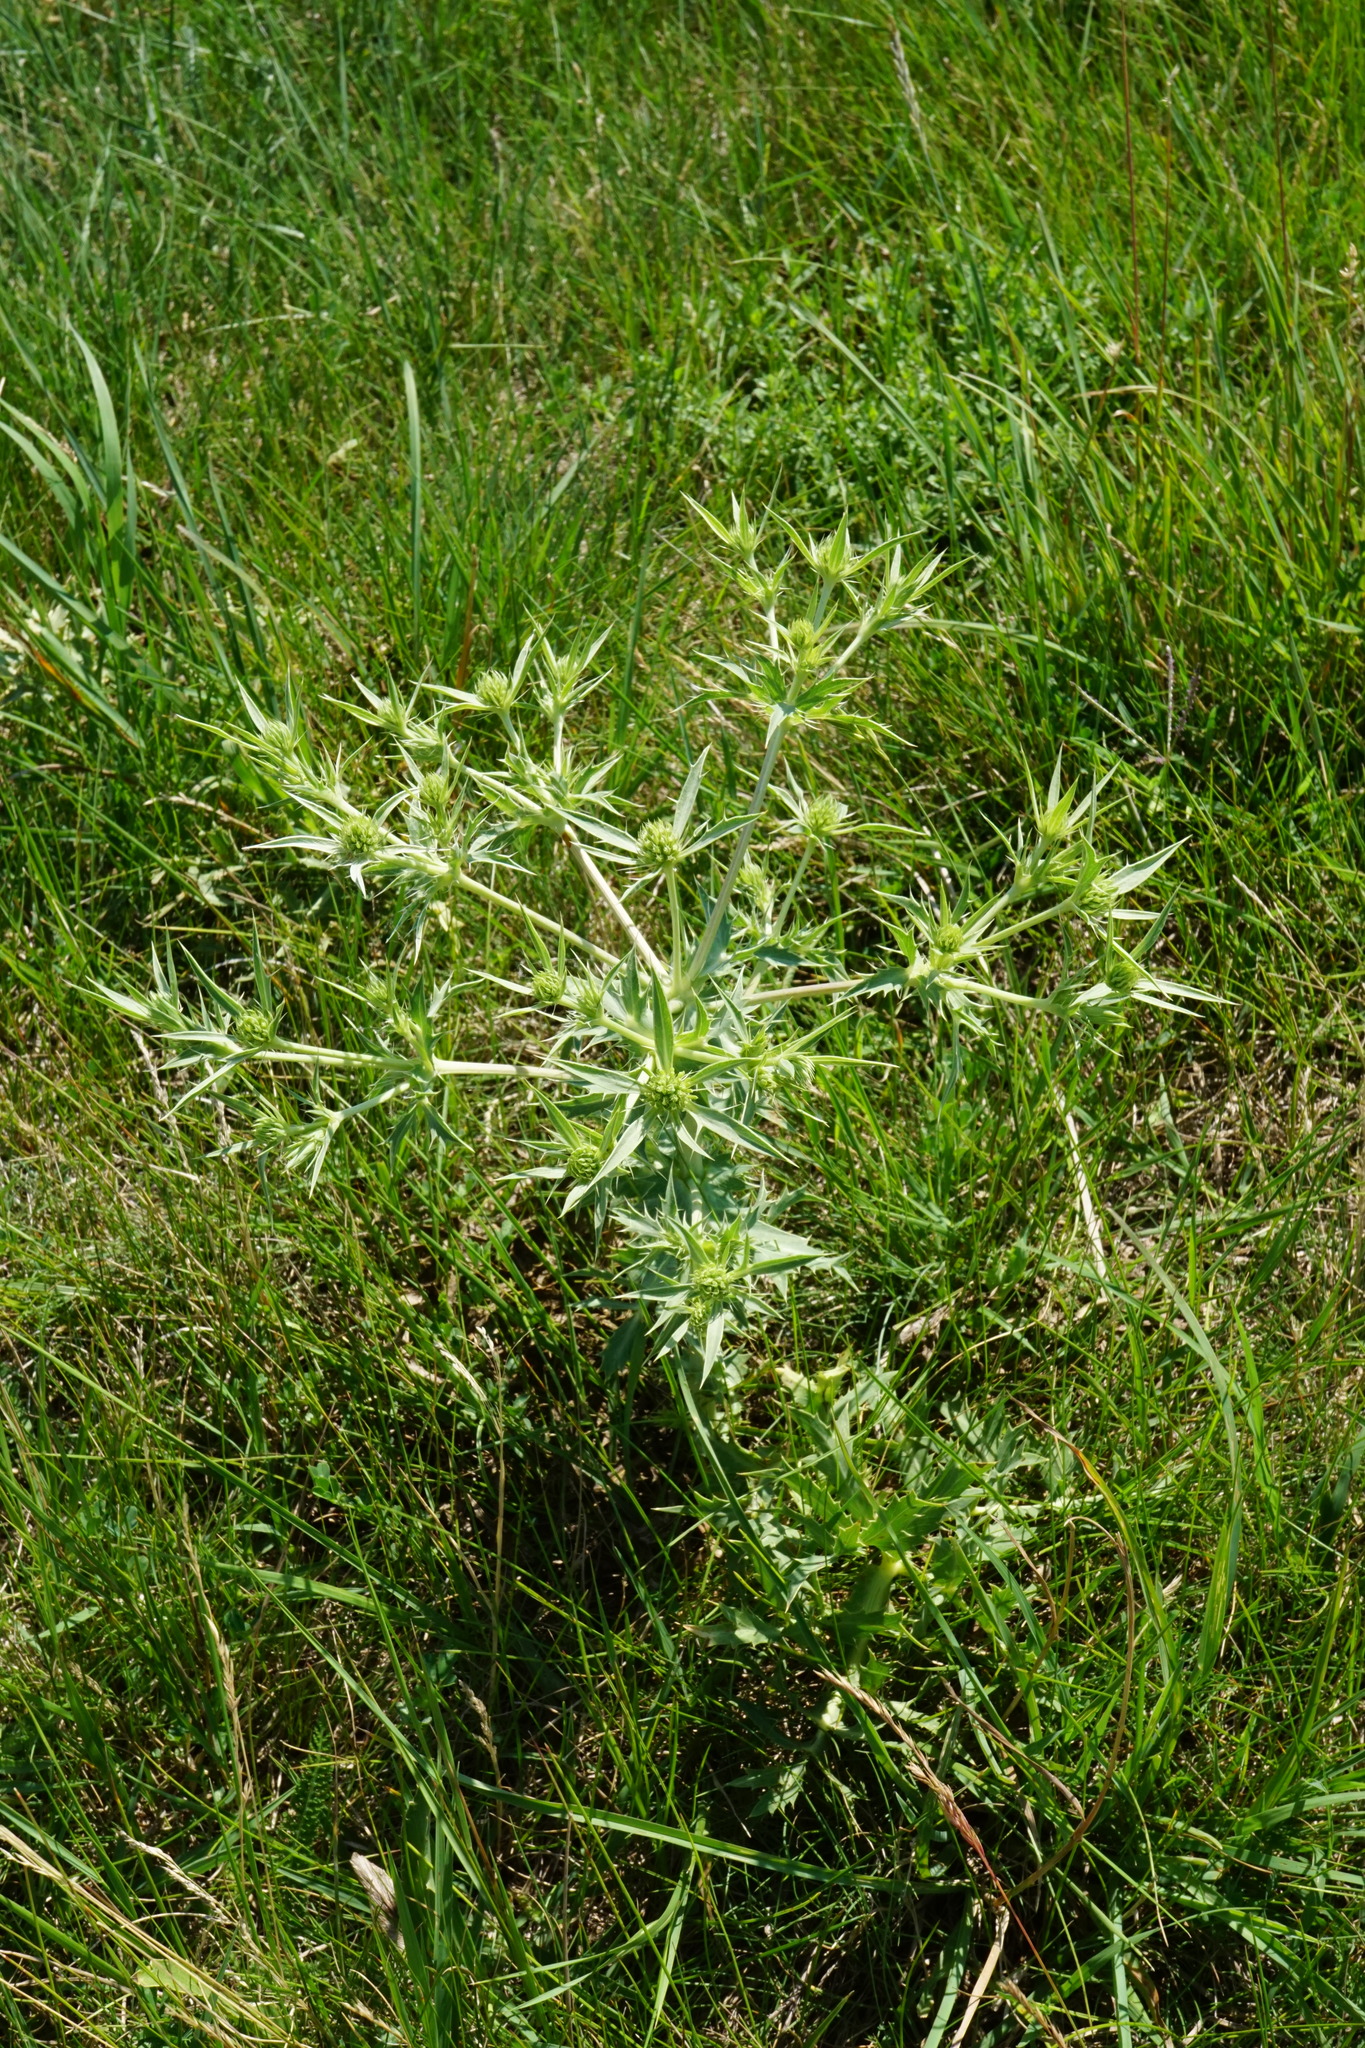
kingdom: Plantae
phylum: Tracheophyta
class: Magnoliopsida
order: Apiales
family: Apiaceae
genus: Eryngium
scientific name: Eryngium campestre
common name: Field eryngo
